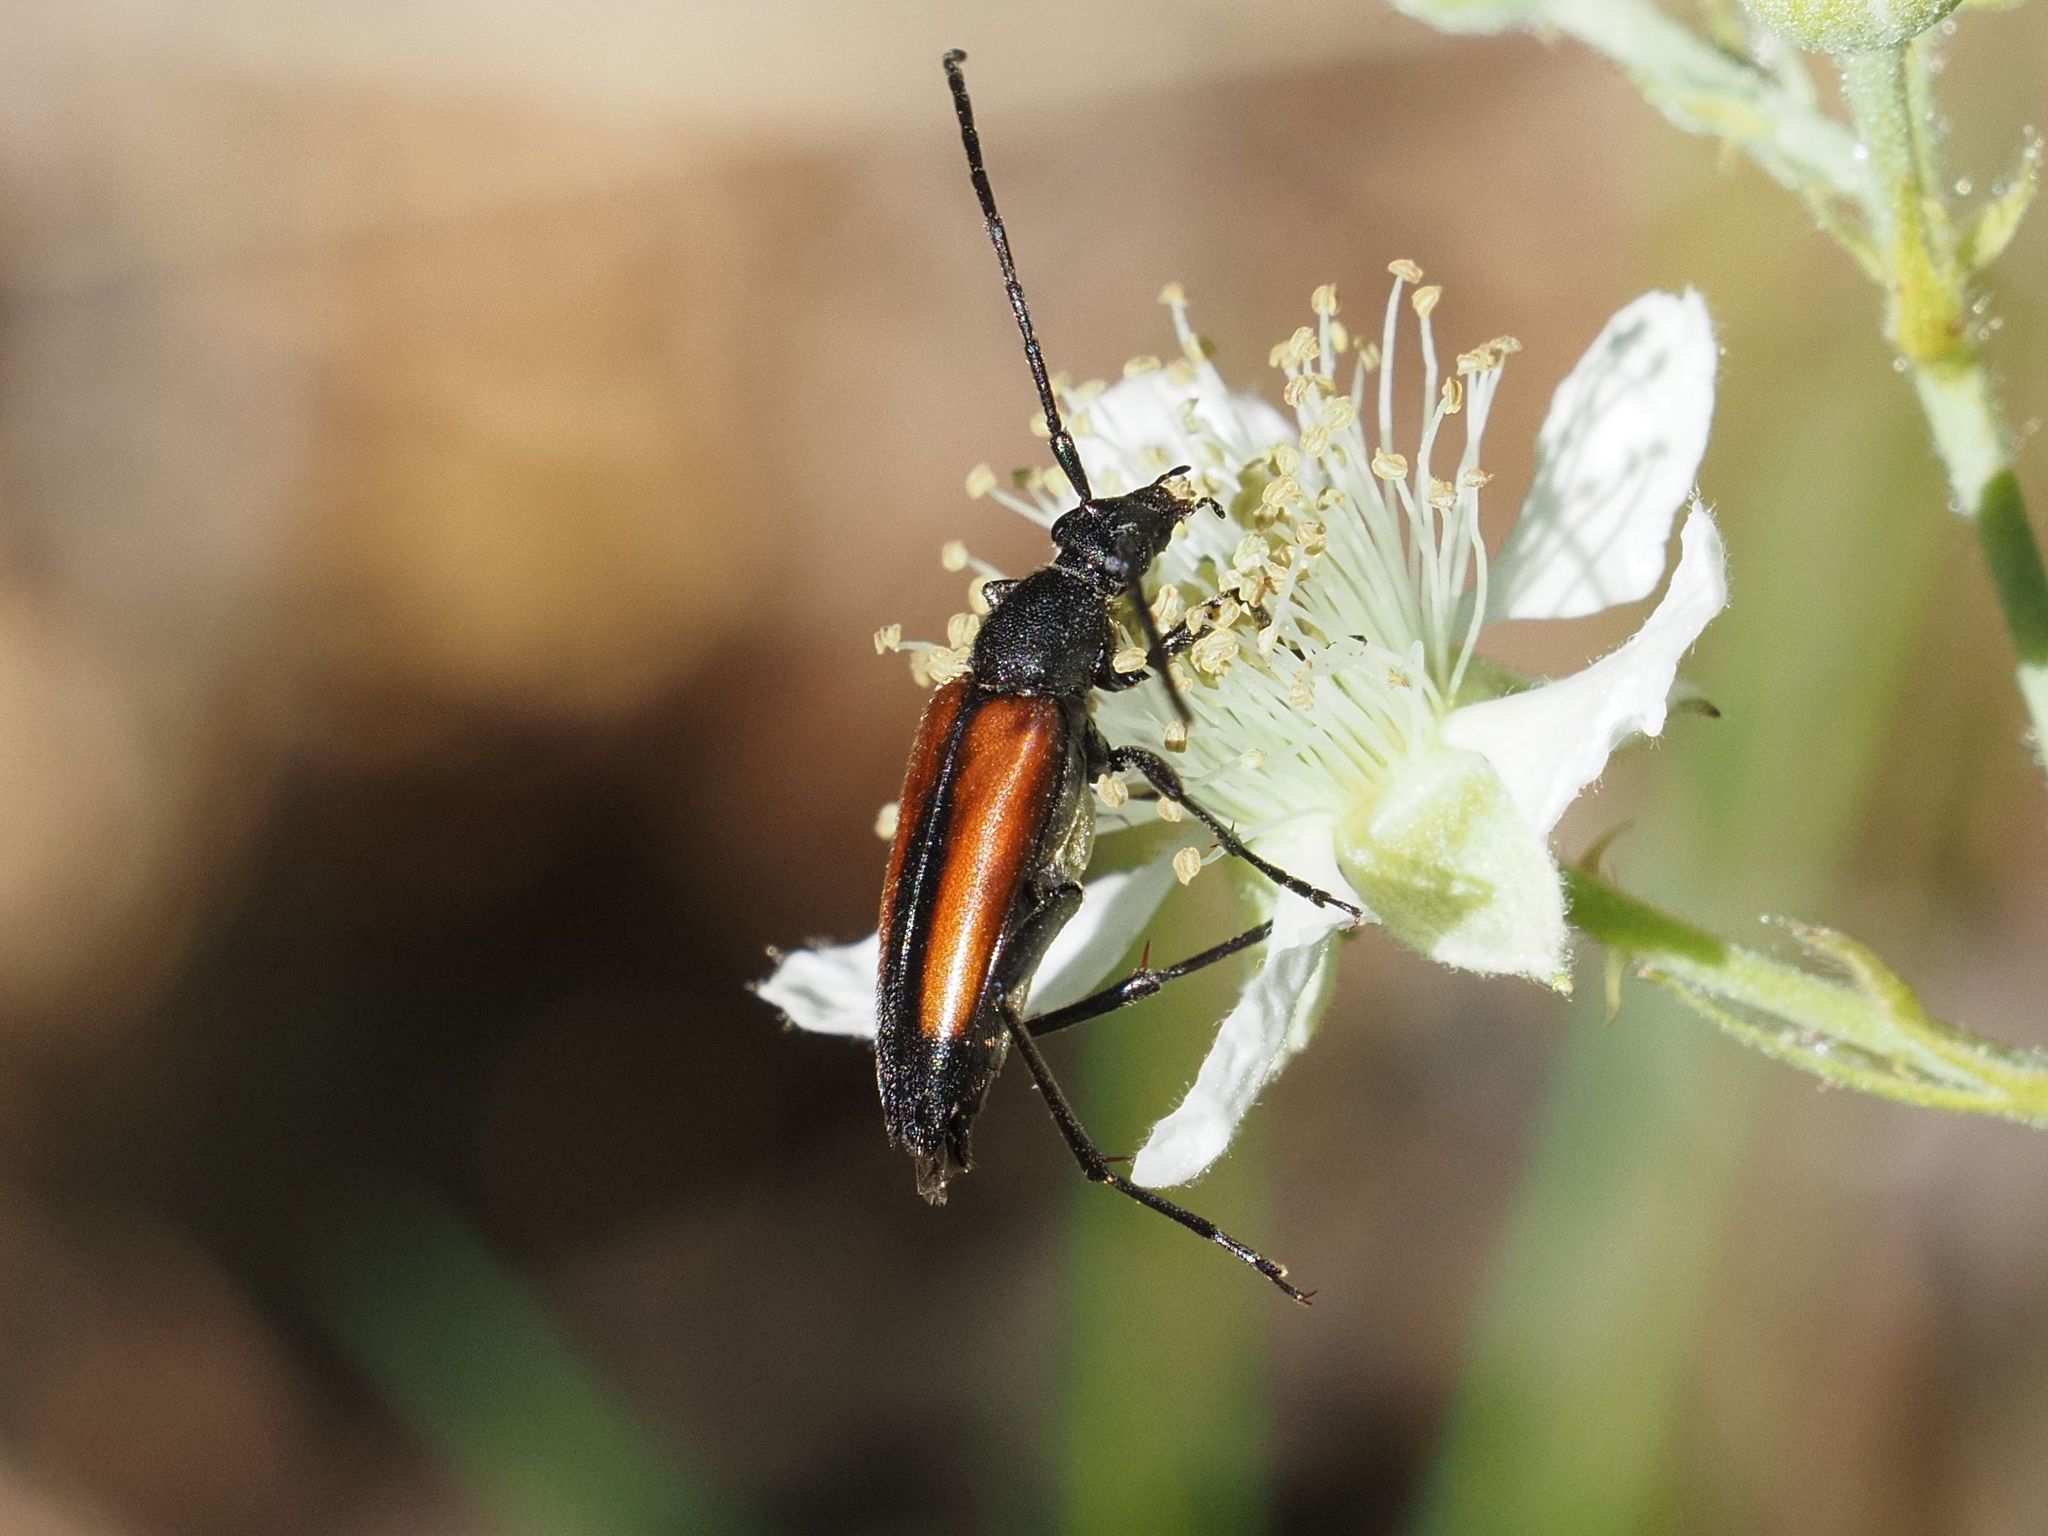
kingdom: Animalia
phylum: Arthropoda
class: Insecta
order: Coleoptera
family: Cerambycidae
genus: Stenurella
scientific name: Stenurella melanura
